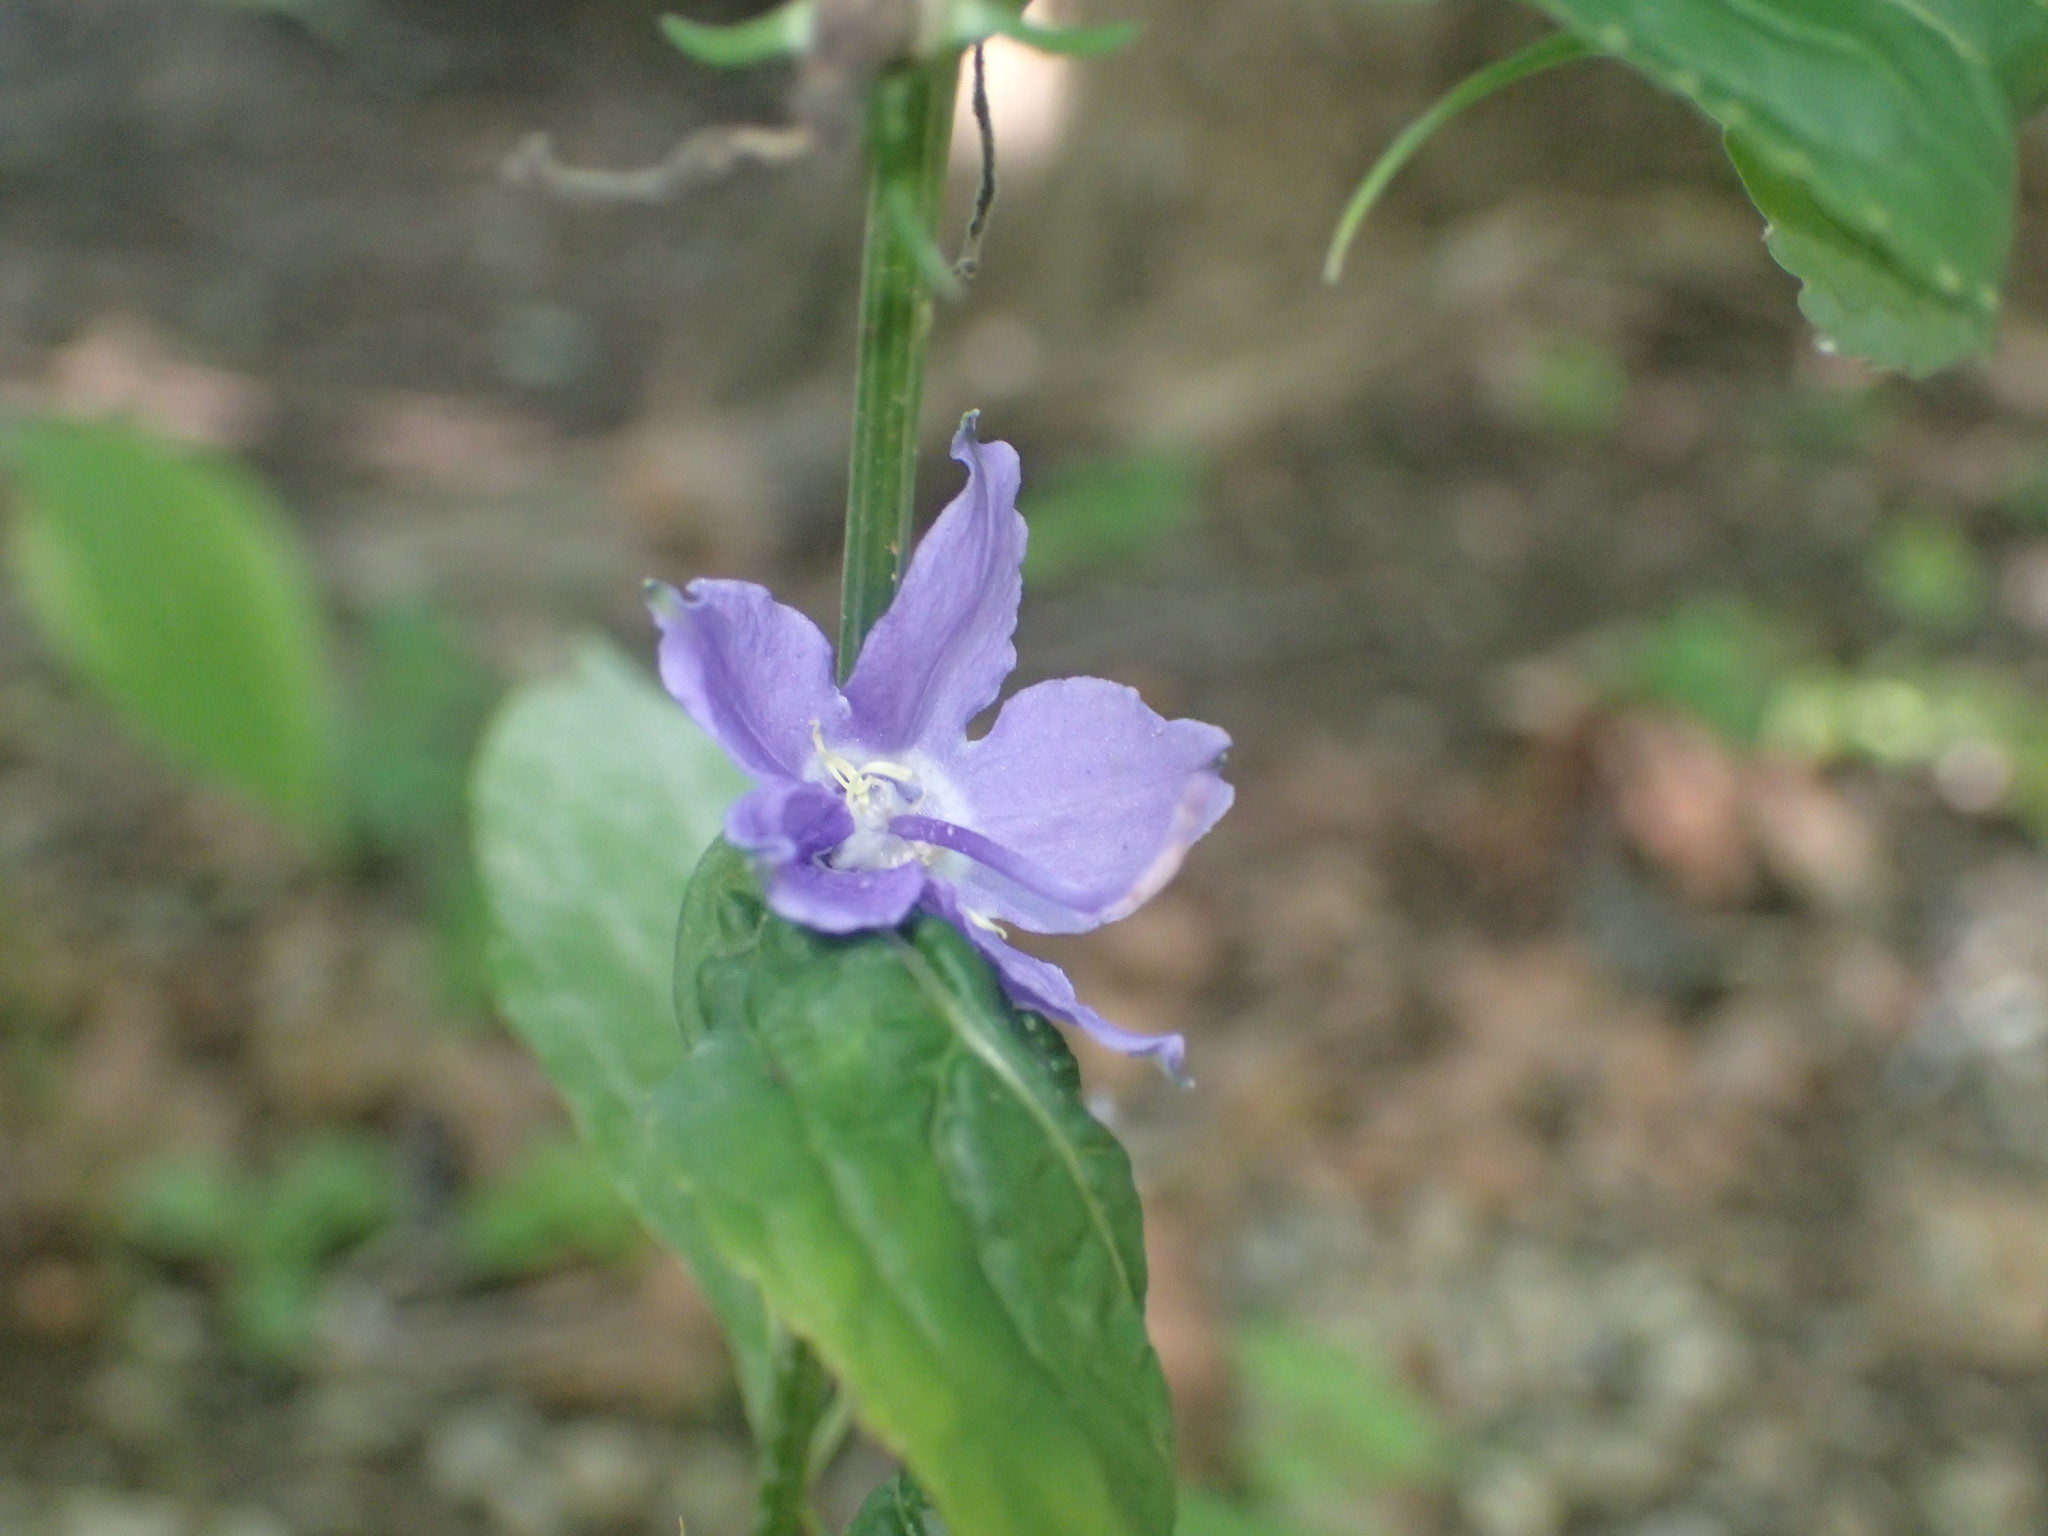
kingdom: Plantae
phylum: Tracheophyta
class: Magnoliopsida
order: Asterales
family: Campanulaceae
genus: Campanulastrum
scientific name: Campanulastrum americanum
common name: American bellflower
